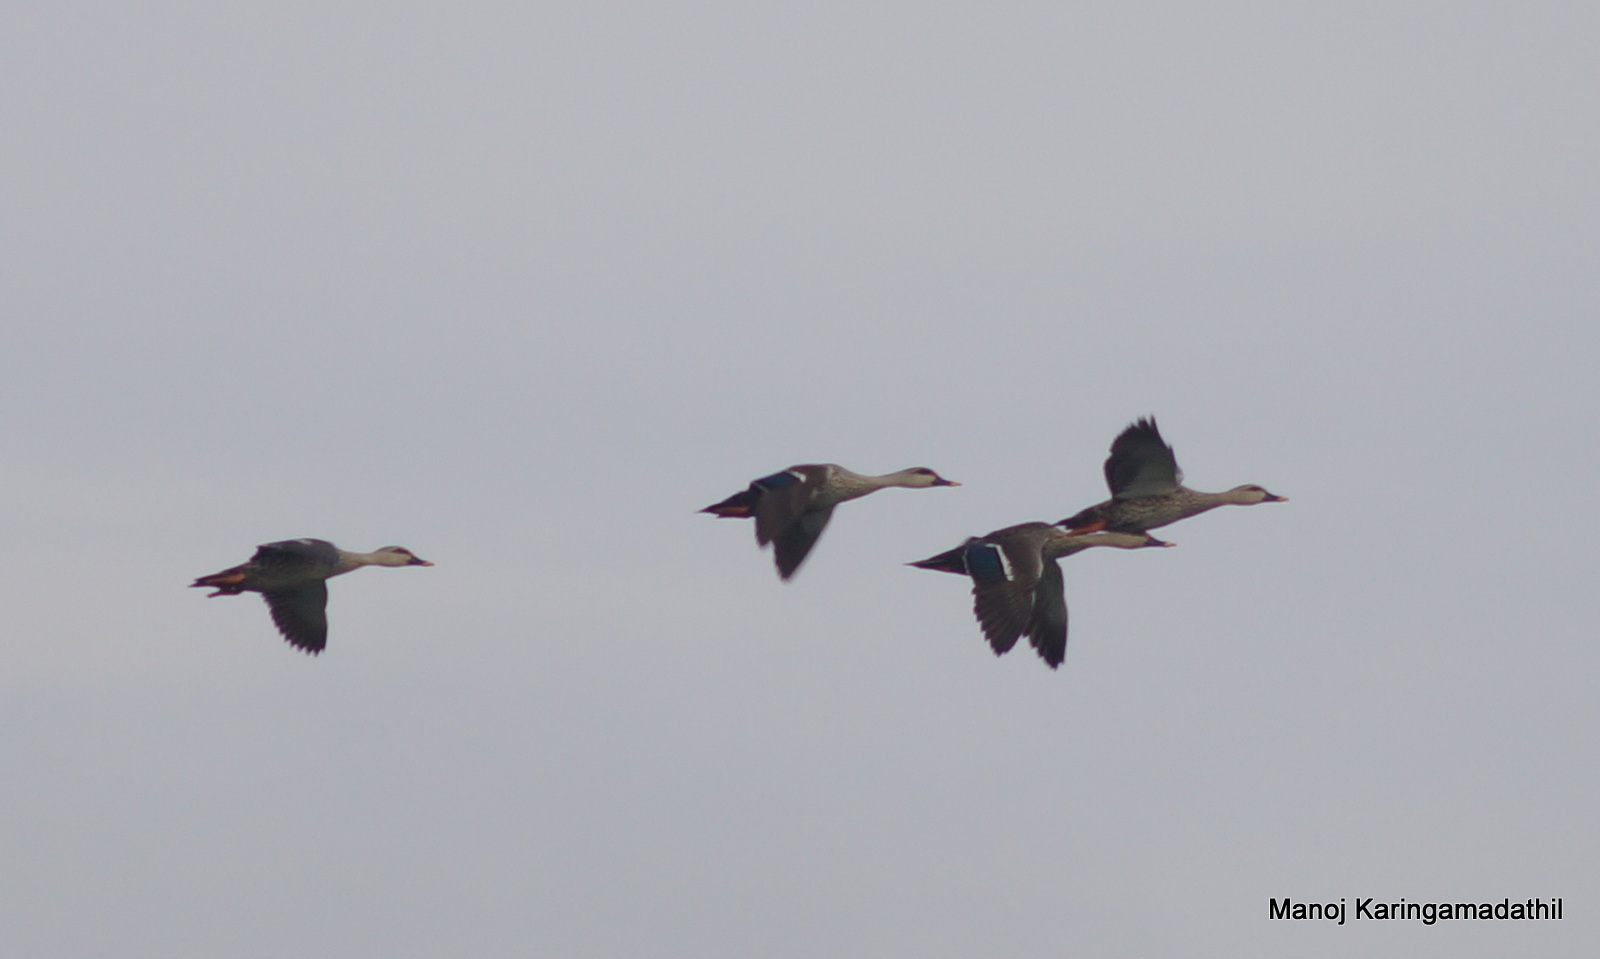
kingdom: Animalia
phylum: Chordata
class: Aves
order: Anseriformes
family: Anatidae
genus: Anas
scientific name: Anas poecilorhyncha
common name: Indian spot-billed duck
